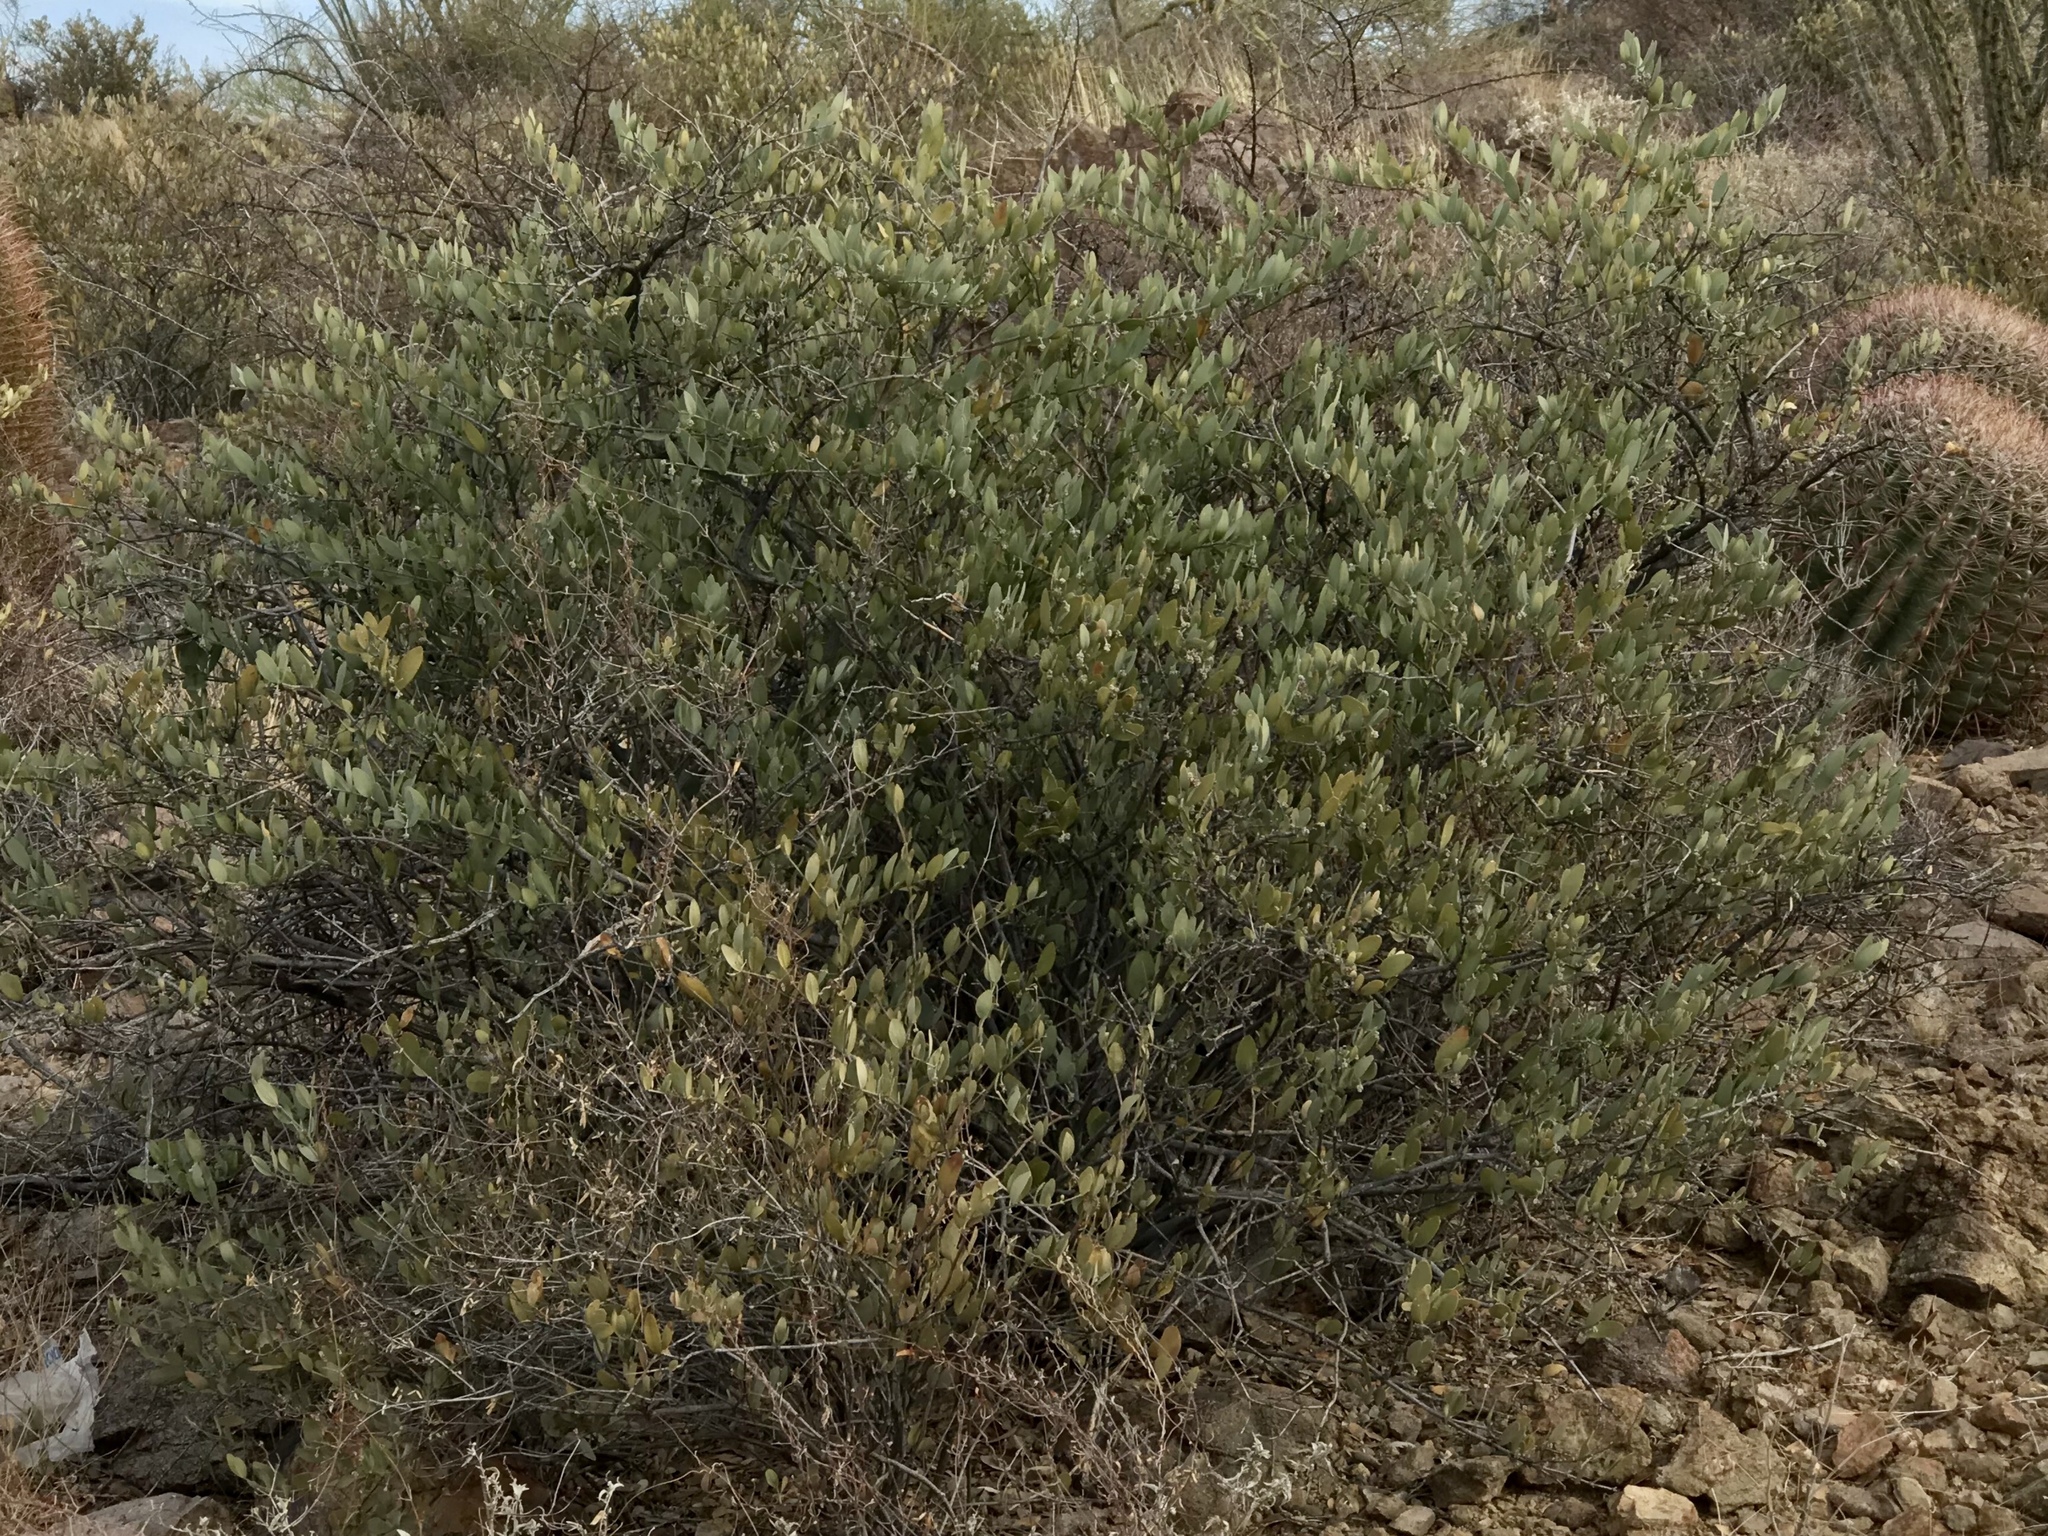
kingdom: Plantae
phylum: Tracheophyta
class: Magnoliopsida
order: Caryophyllales
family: Simmondsiaceae
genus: Simmondsia
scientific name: Simmondsia chinensis
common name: Jojoba
